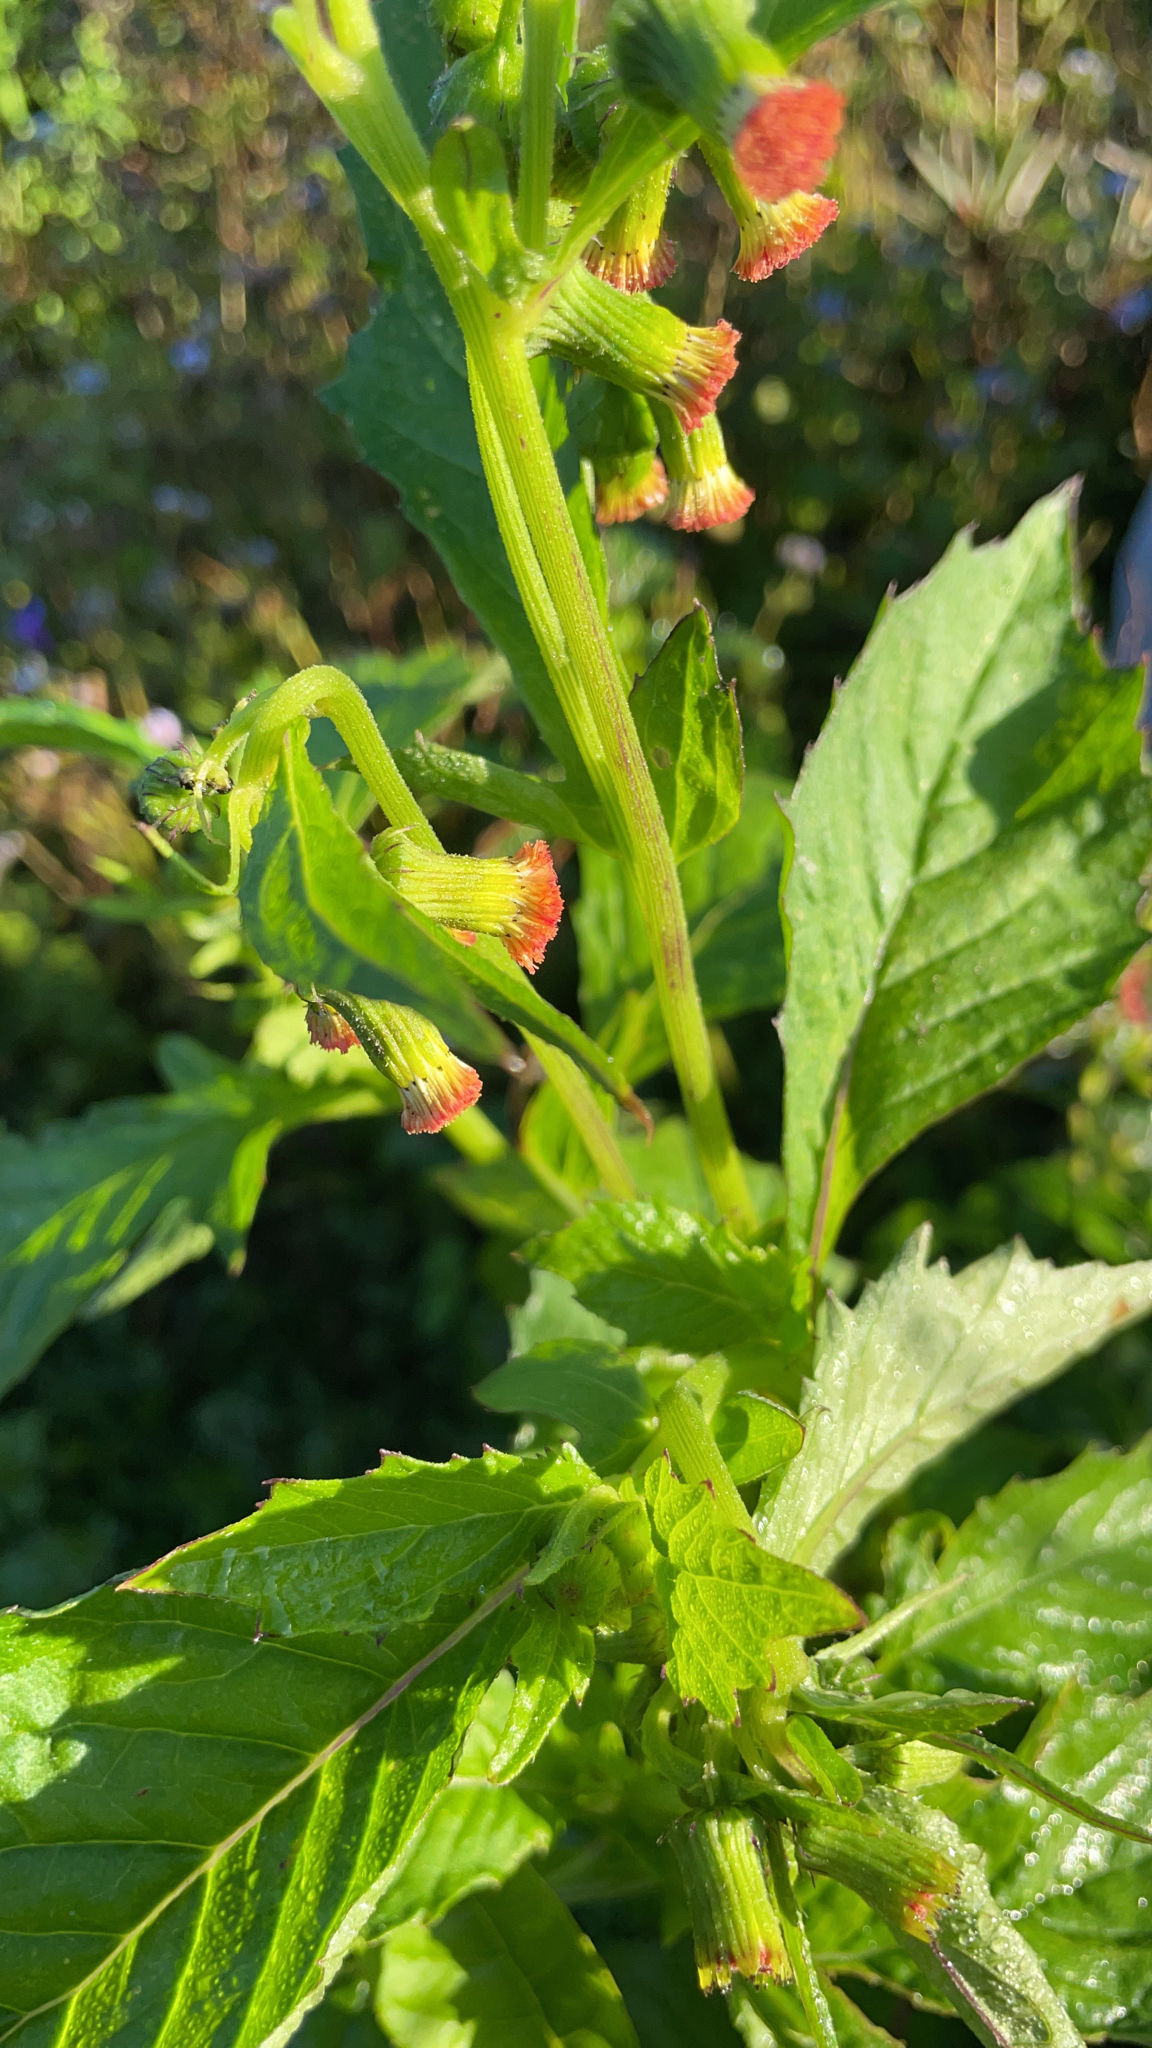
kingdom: Plantae
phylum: Tracheophyta
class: Magnoliopsida
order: Asterales
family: Asteraceae
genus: Crassocephalum
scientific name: Crassocephalum crepidioides
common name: Redflower ragleaf
